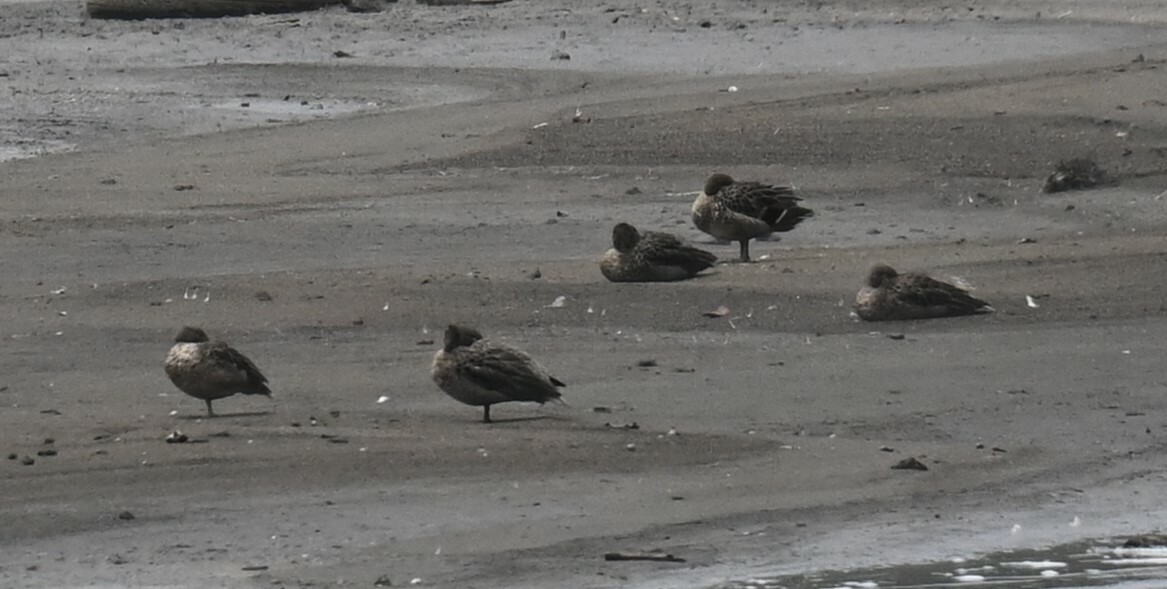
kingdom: Animalia
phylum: Chordata
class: Aves
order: Anseriformes
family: Anatidae
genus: Anas
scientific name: Anas andium
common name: Andean teal
